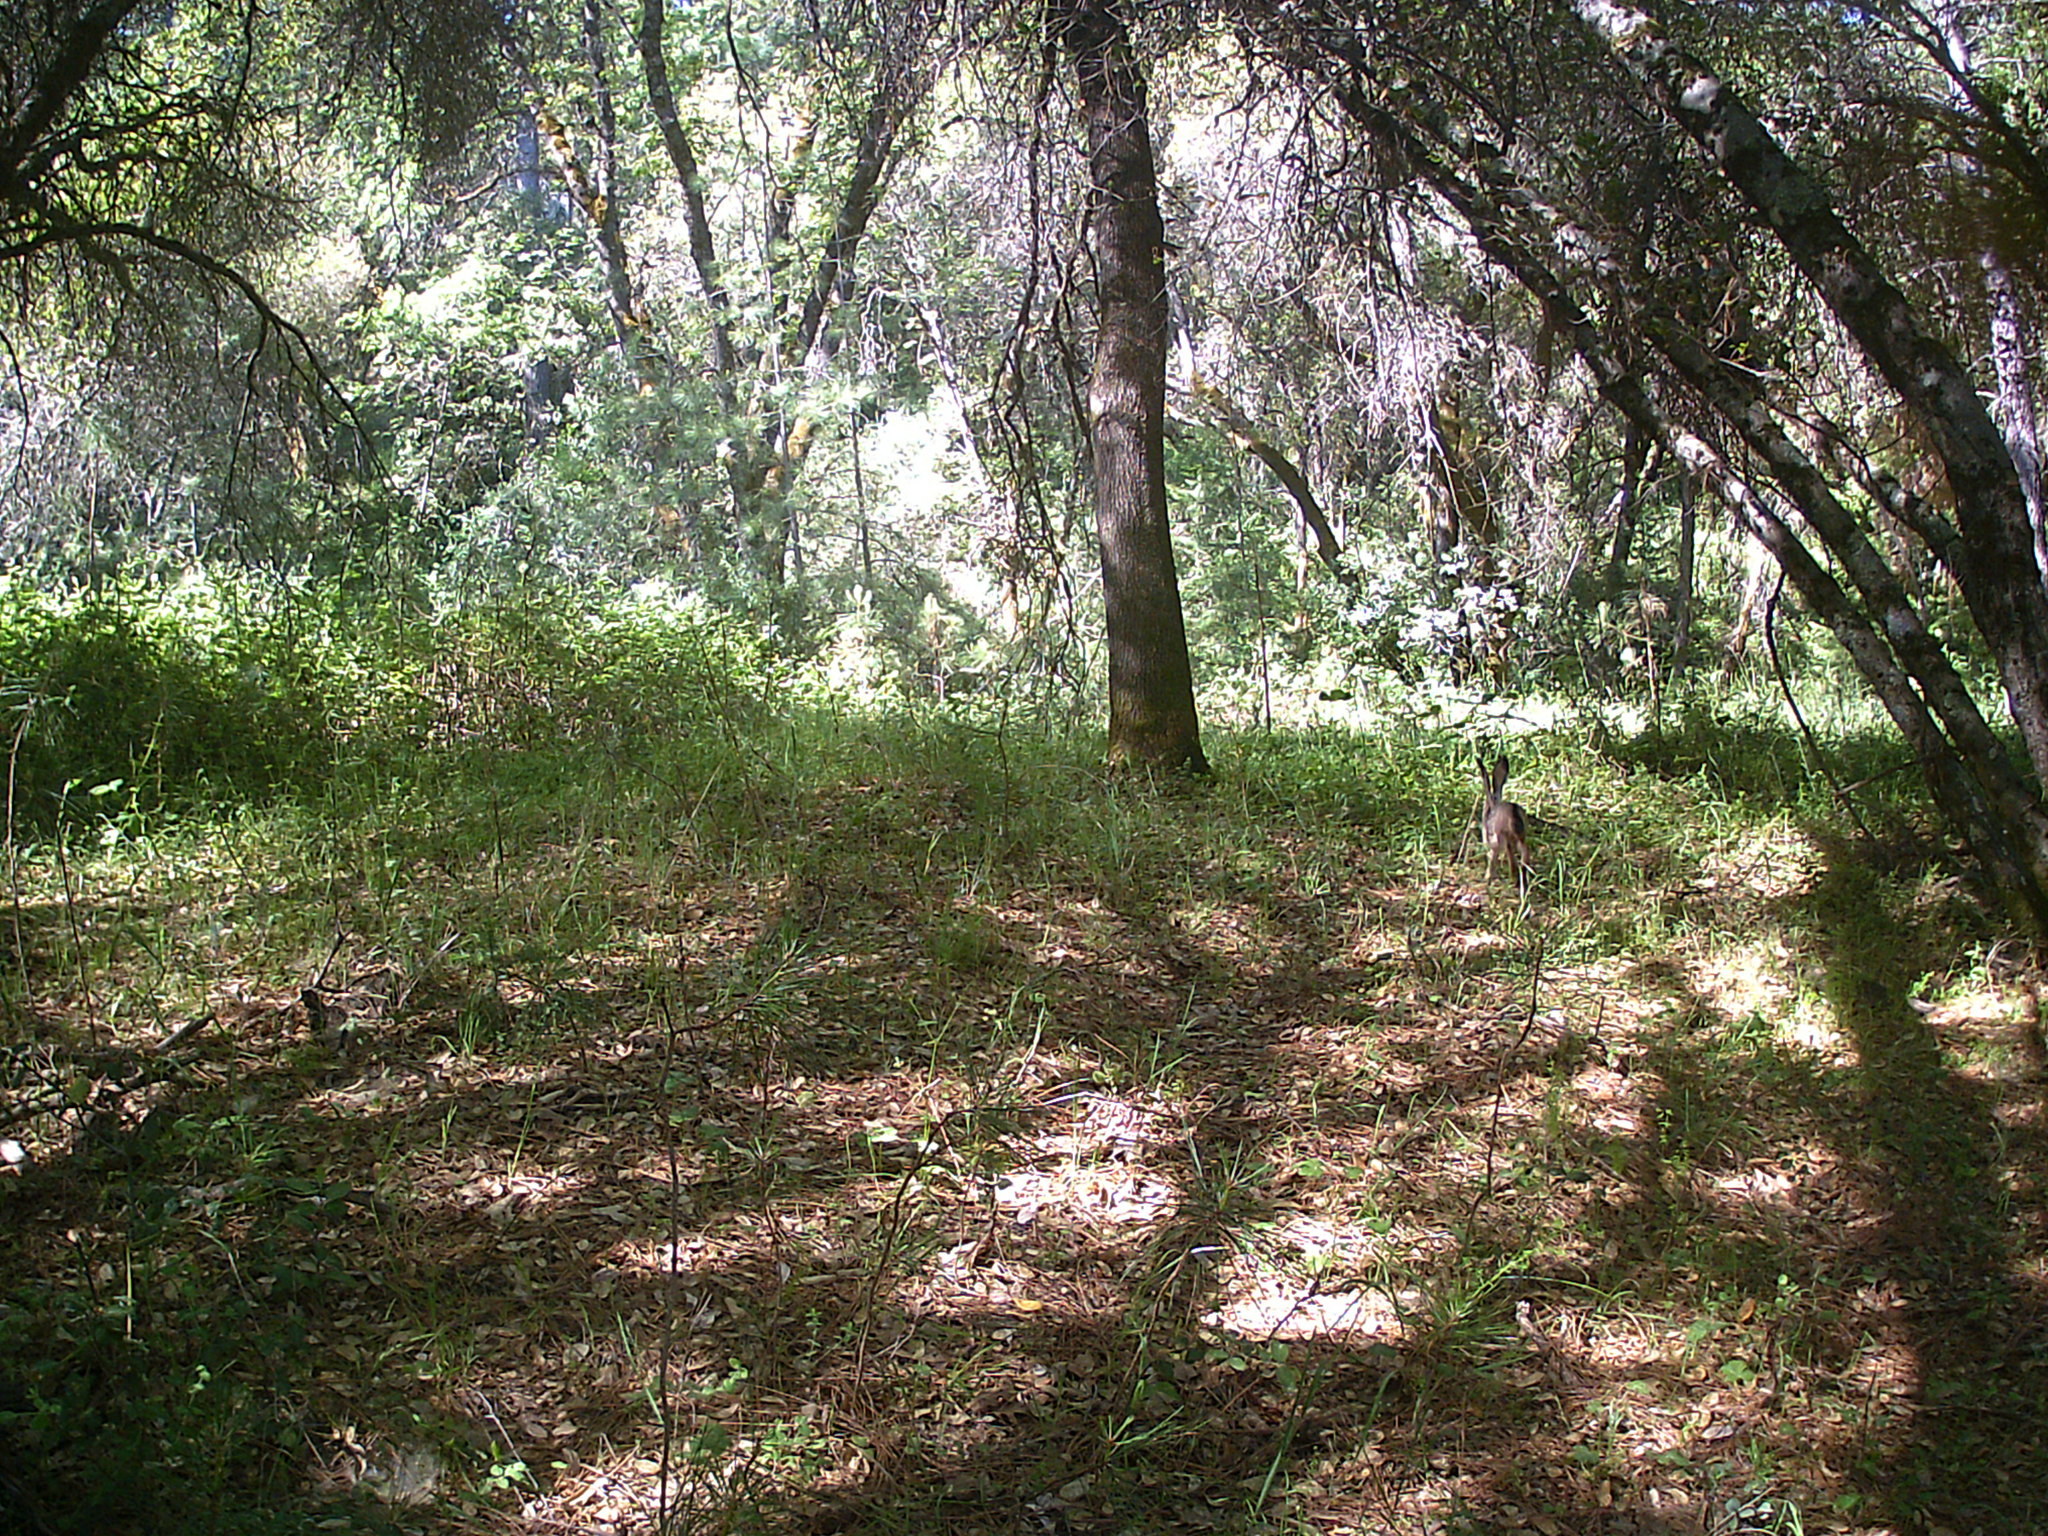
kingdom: Animalia
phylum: Chordata
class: Mammalia
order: Lagomorpha
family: Leporidae
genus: Lepus
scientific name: Lepus californicus
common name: Black-tailed jackrabbit
